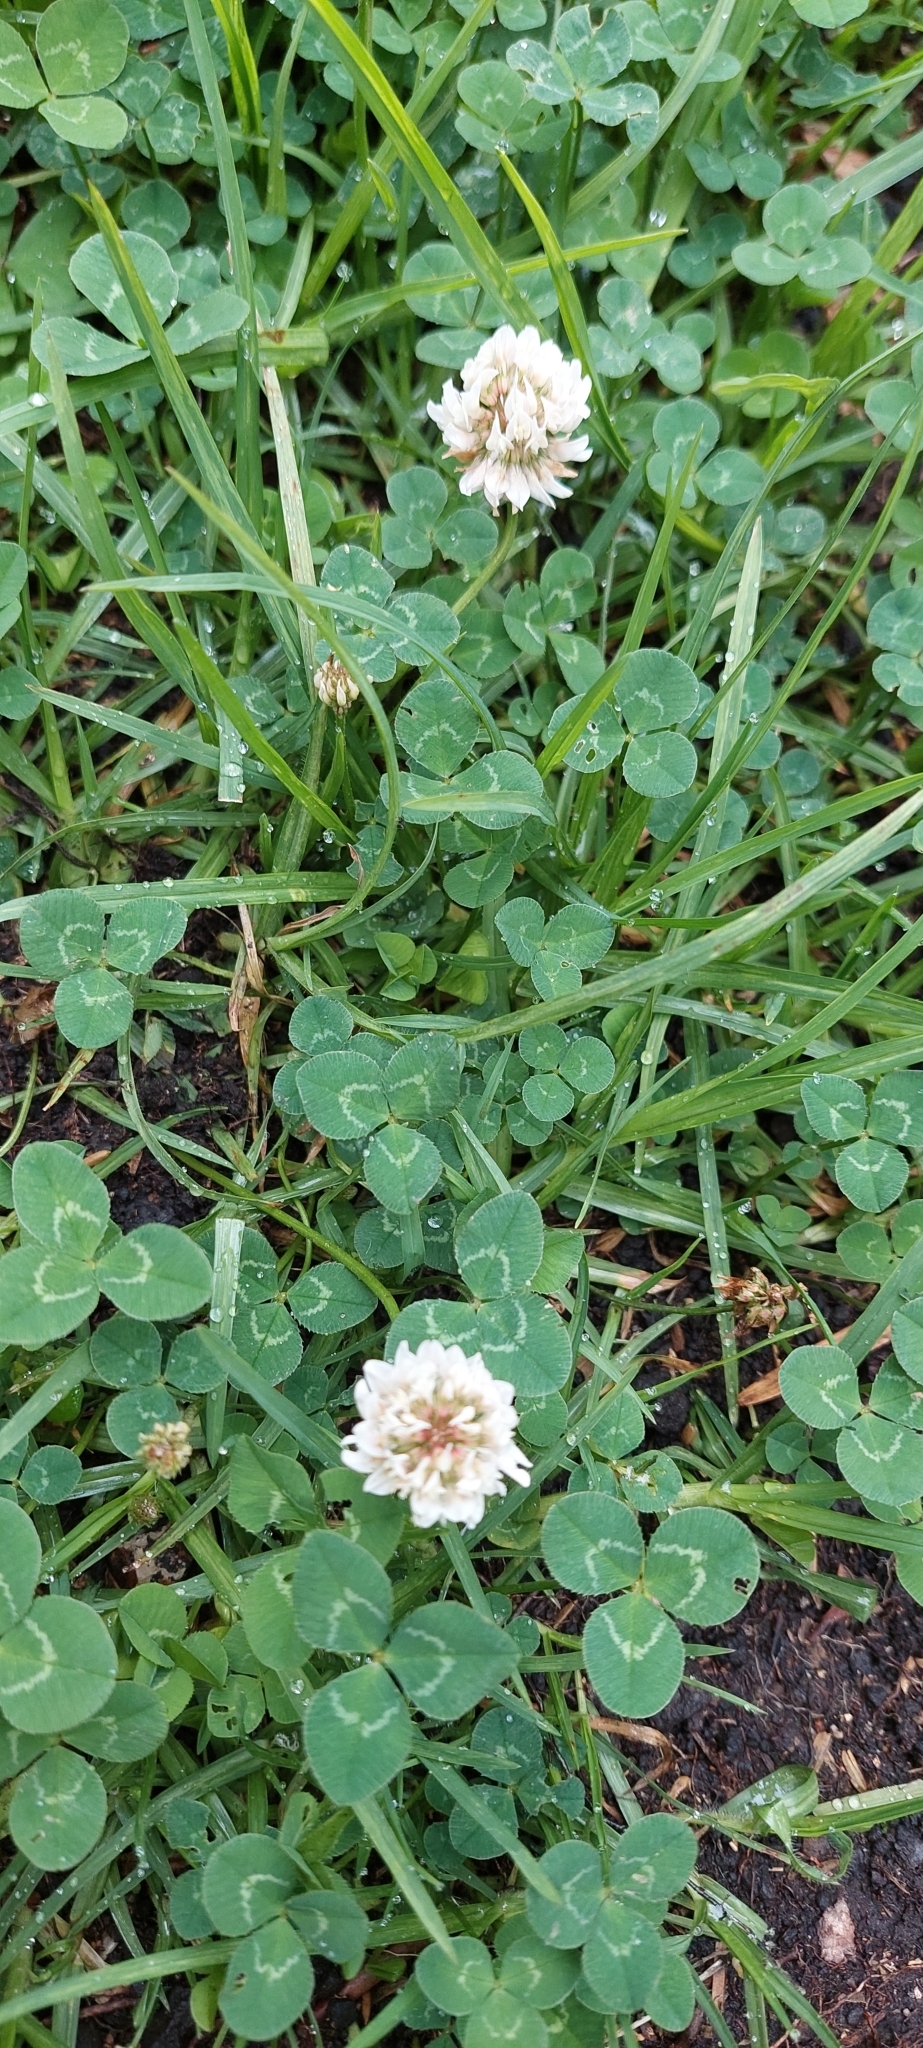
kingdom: Plantae
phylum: Tracheophyta
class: Magnoliopsida
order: Fabales
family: Fabaceae
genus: Trifolium
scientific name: Trifolium repens
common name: White clover
